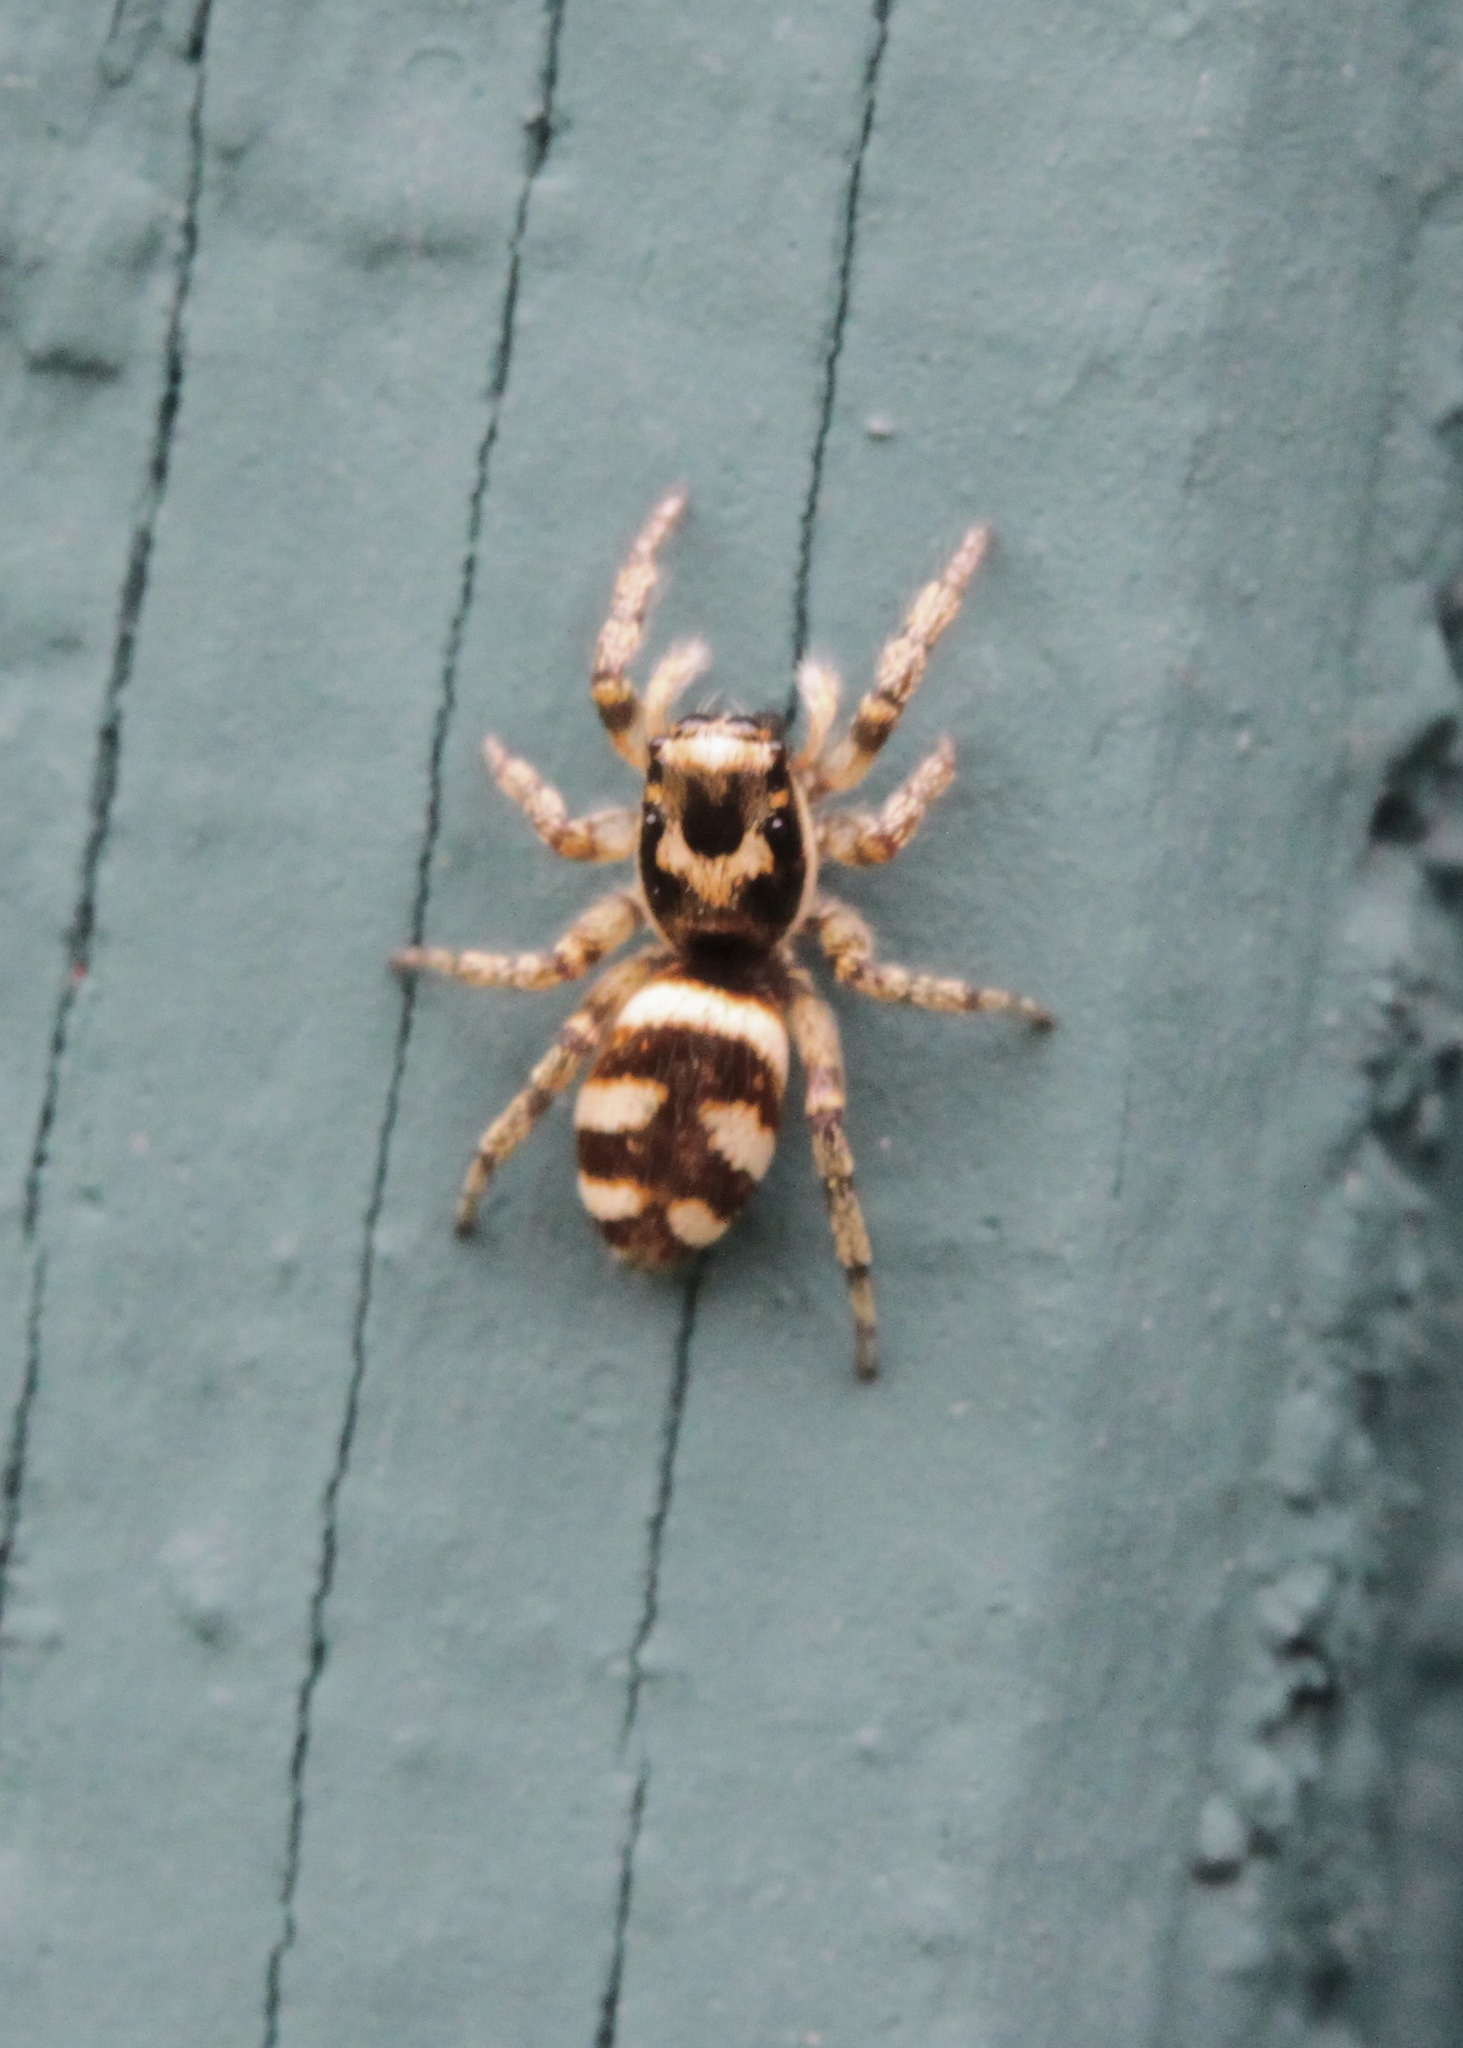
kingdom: Animalia
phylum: Arthropoda
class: Arachnida
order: Araneae
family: Salticidae
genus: Salticus
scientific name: Salticus scenicus
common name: Zebra jumper
